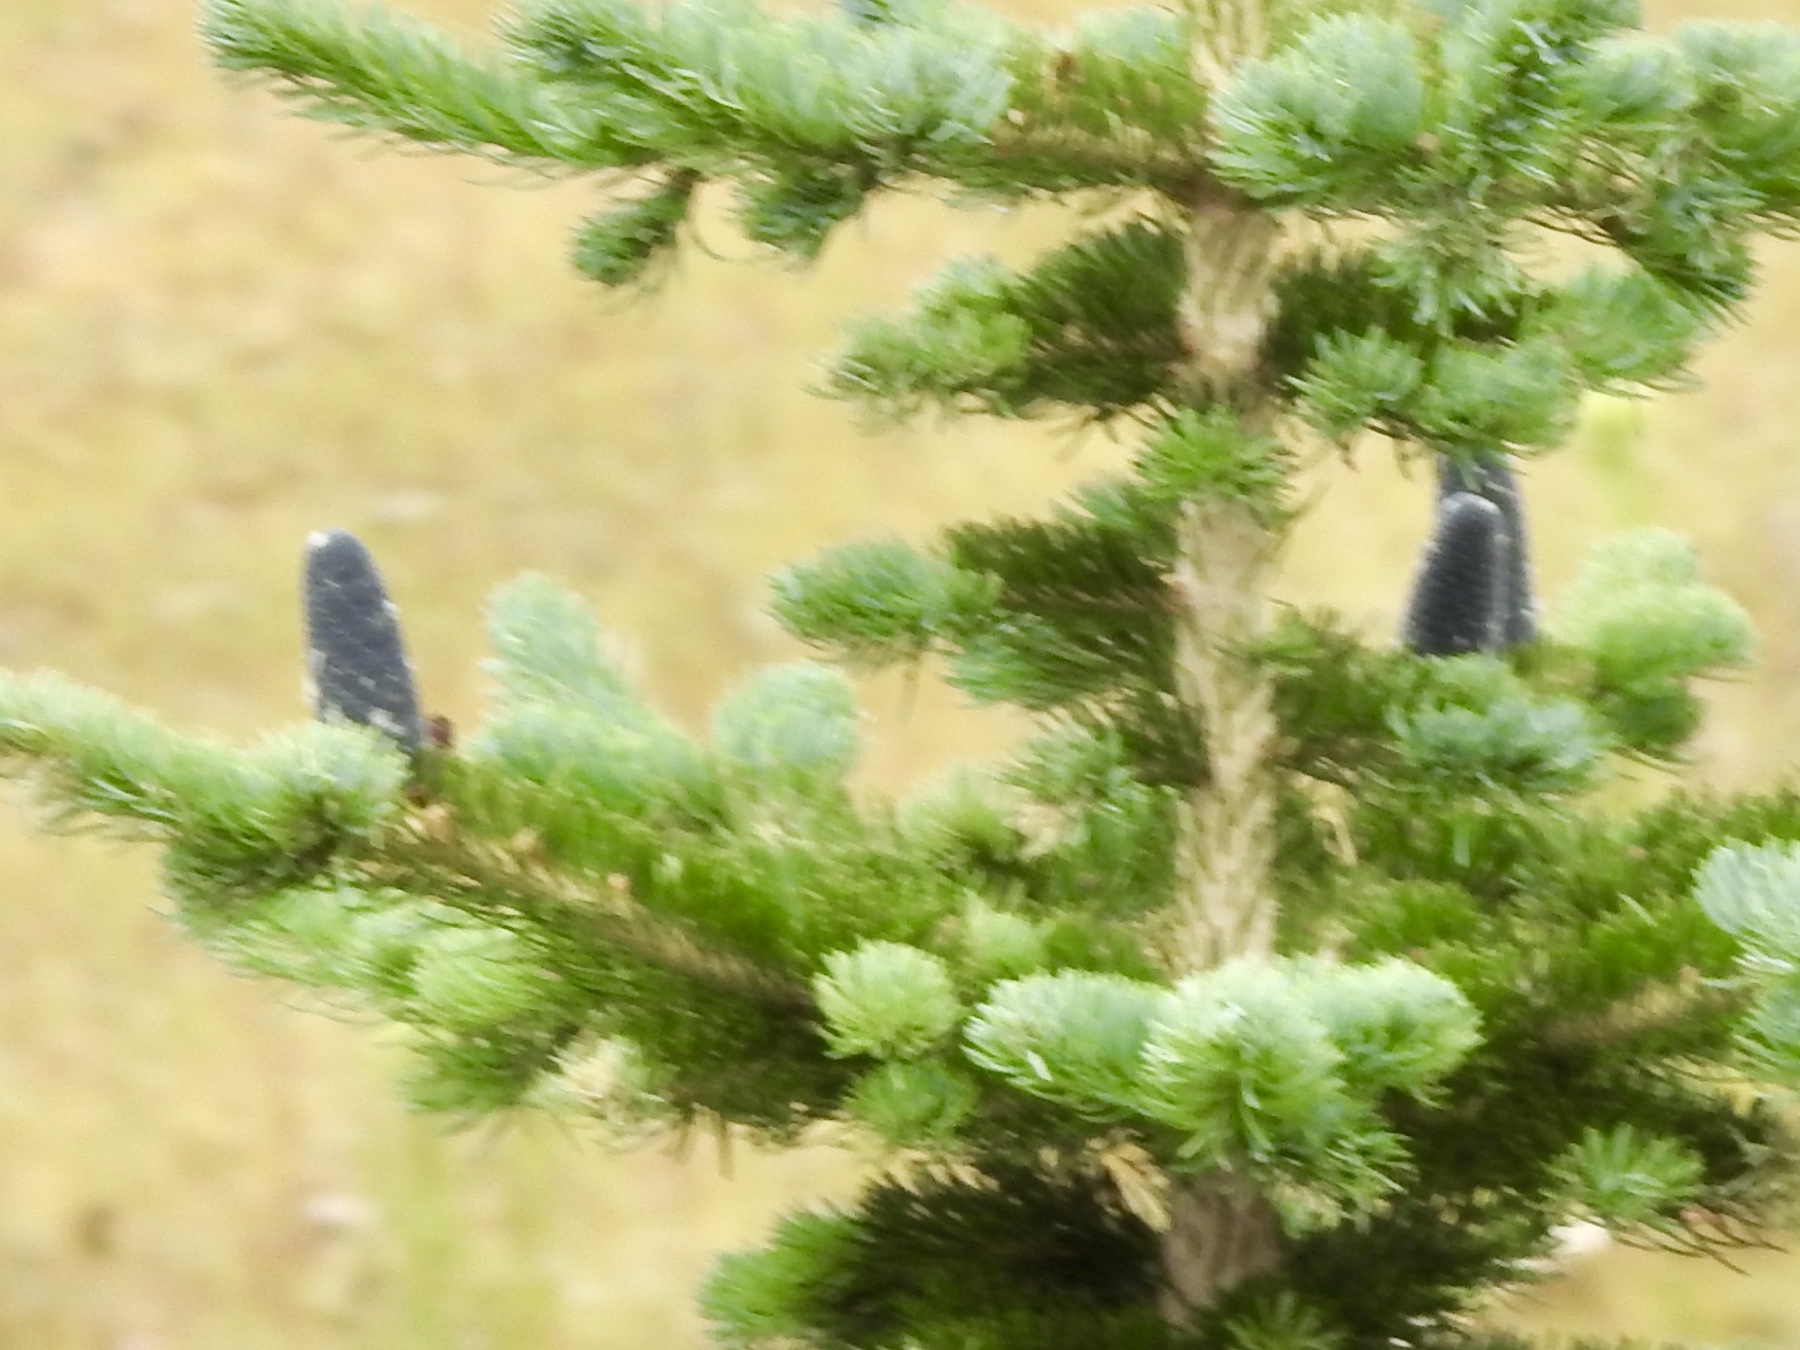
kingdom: Plantae
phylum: Tracheophyta
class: Pinopsida
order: Pinales
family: Pinaceae
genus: Abies
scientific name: Abies lasiocarpa
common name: Subalpine fir
